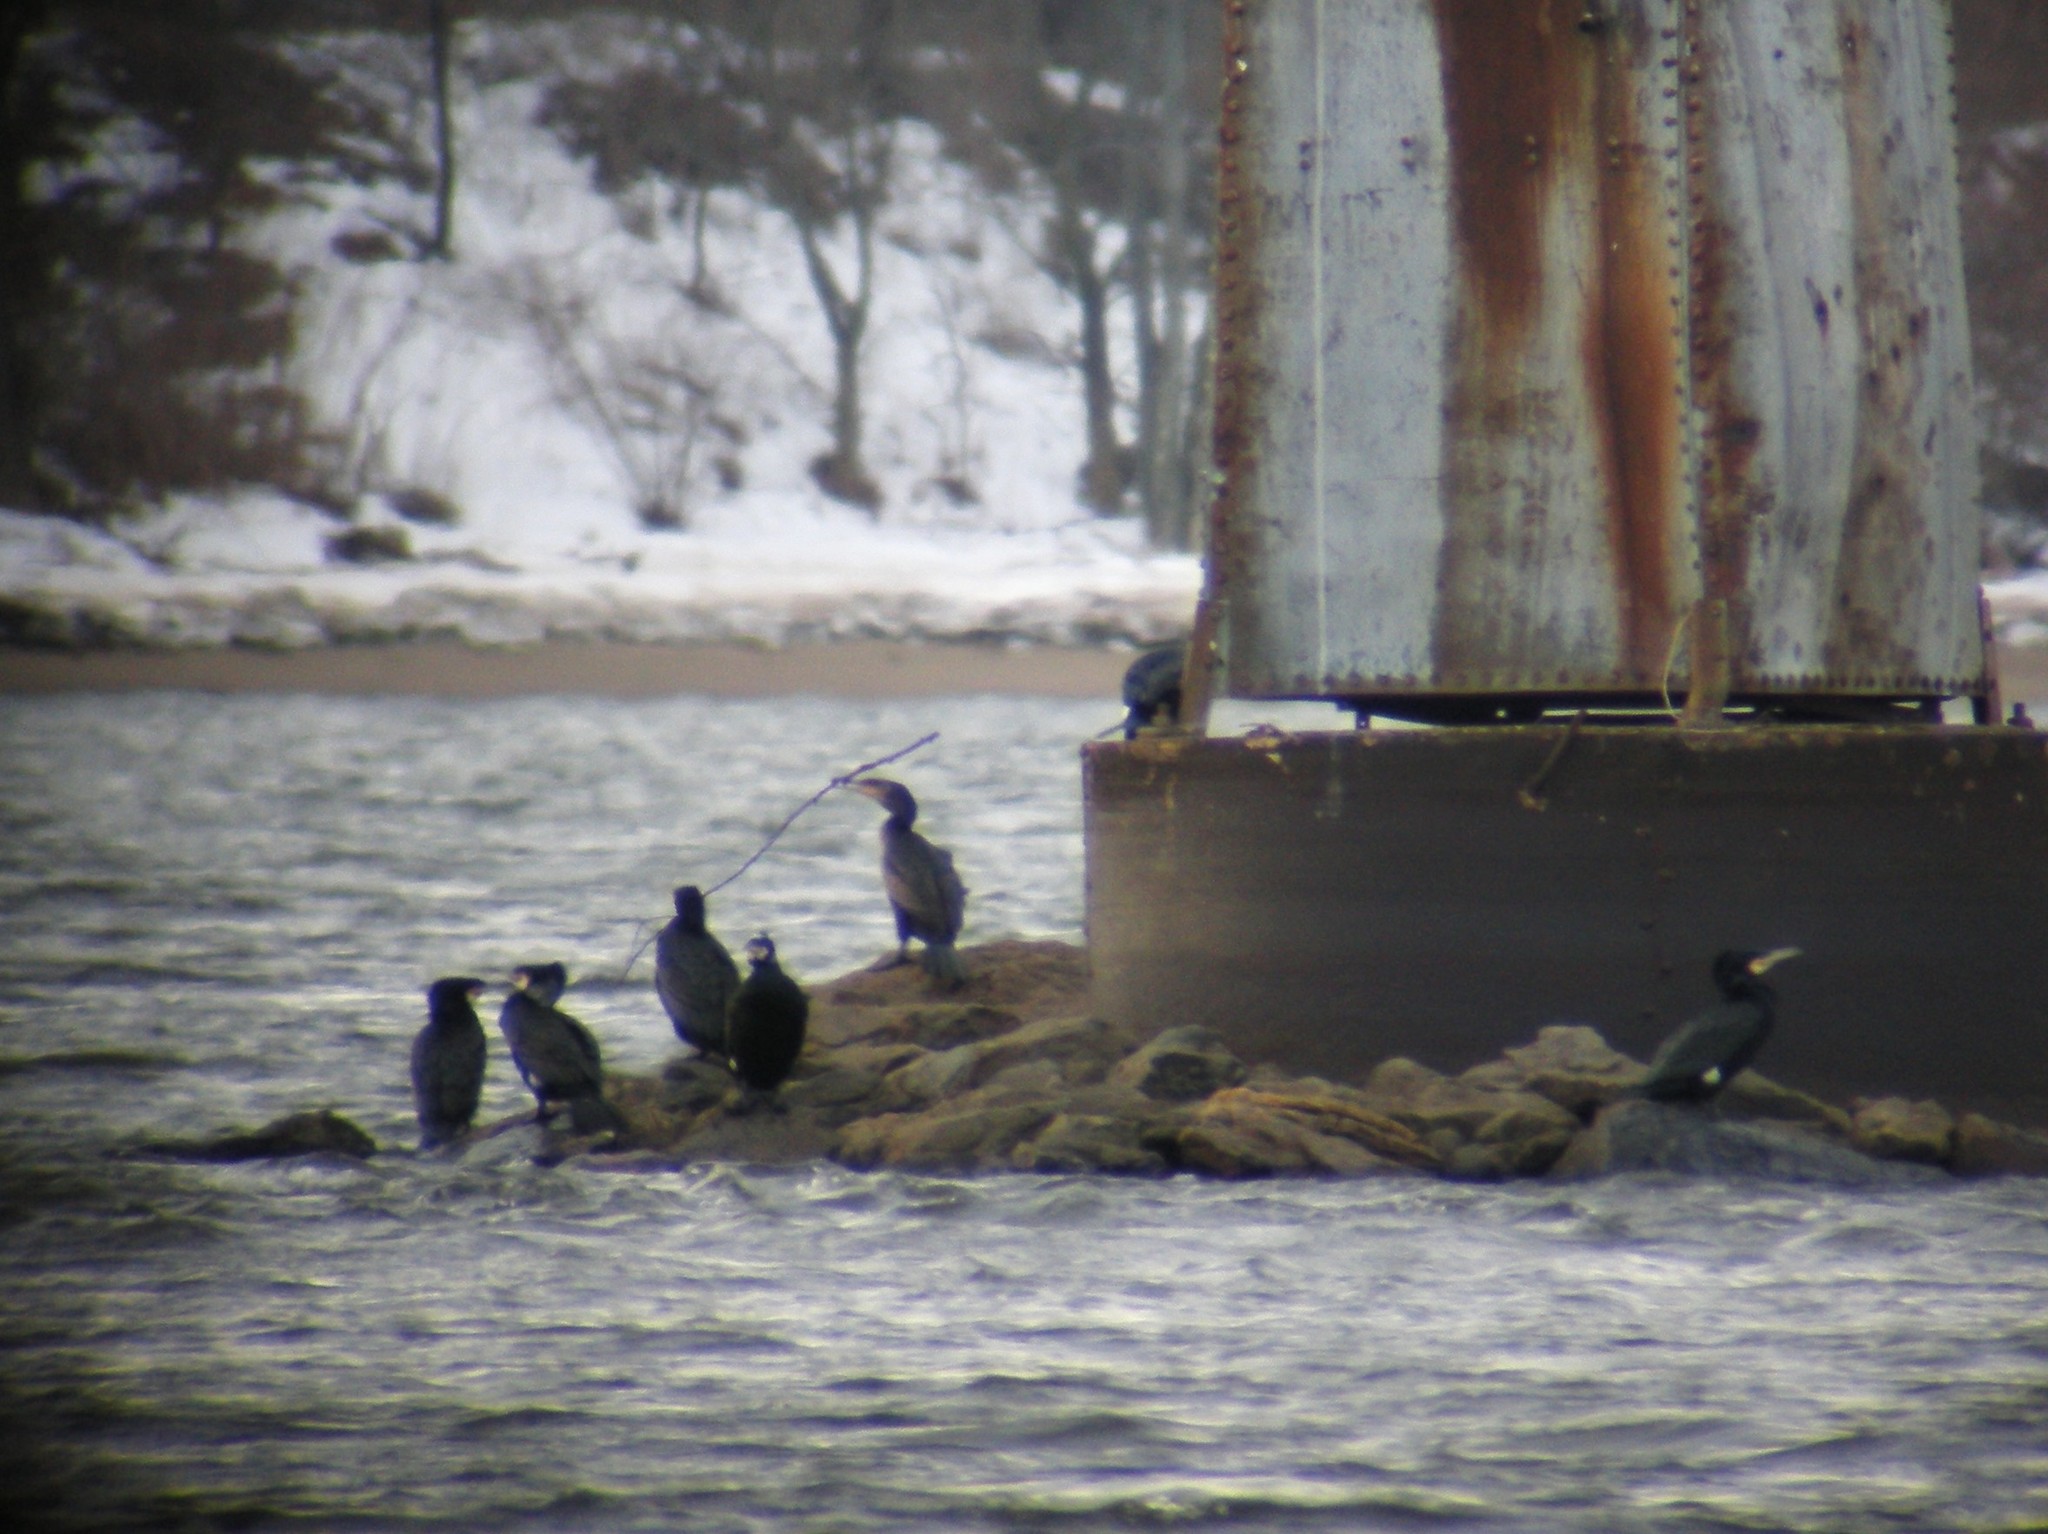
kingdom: Animalia
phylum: Chordata
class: Aves
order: Suliformes
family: Phalacrocoracidae
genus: Phalacrocorax
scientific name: Phalacrocorax carbo
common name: Great cormorant
